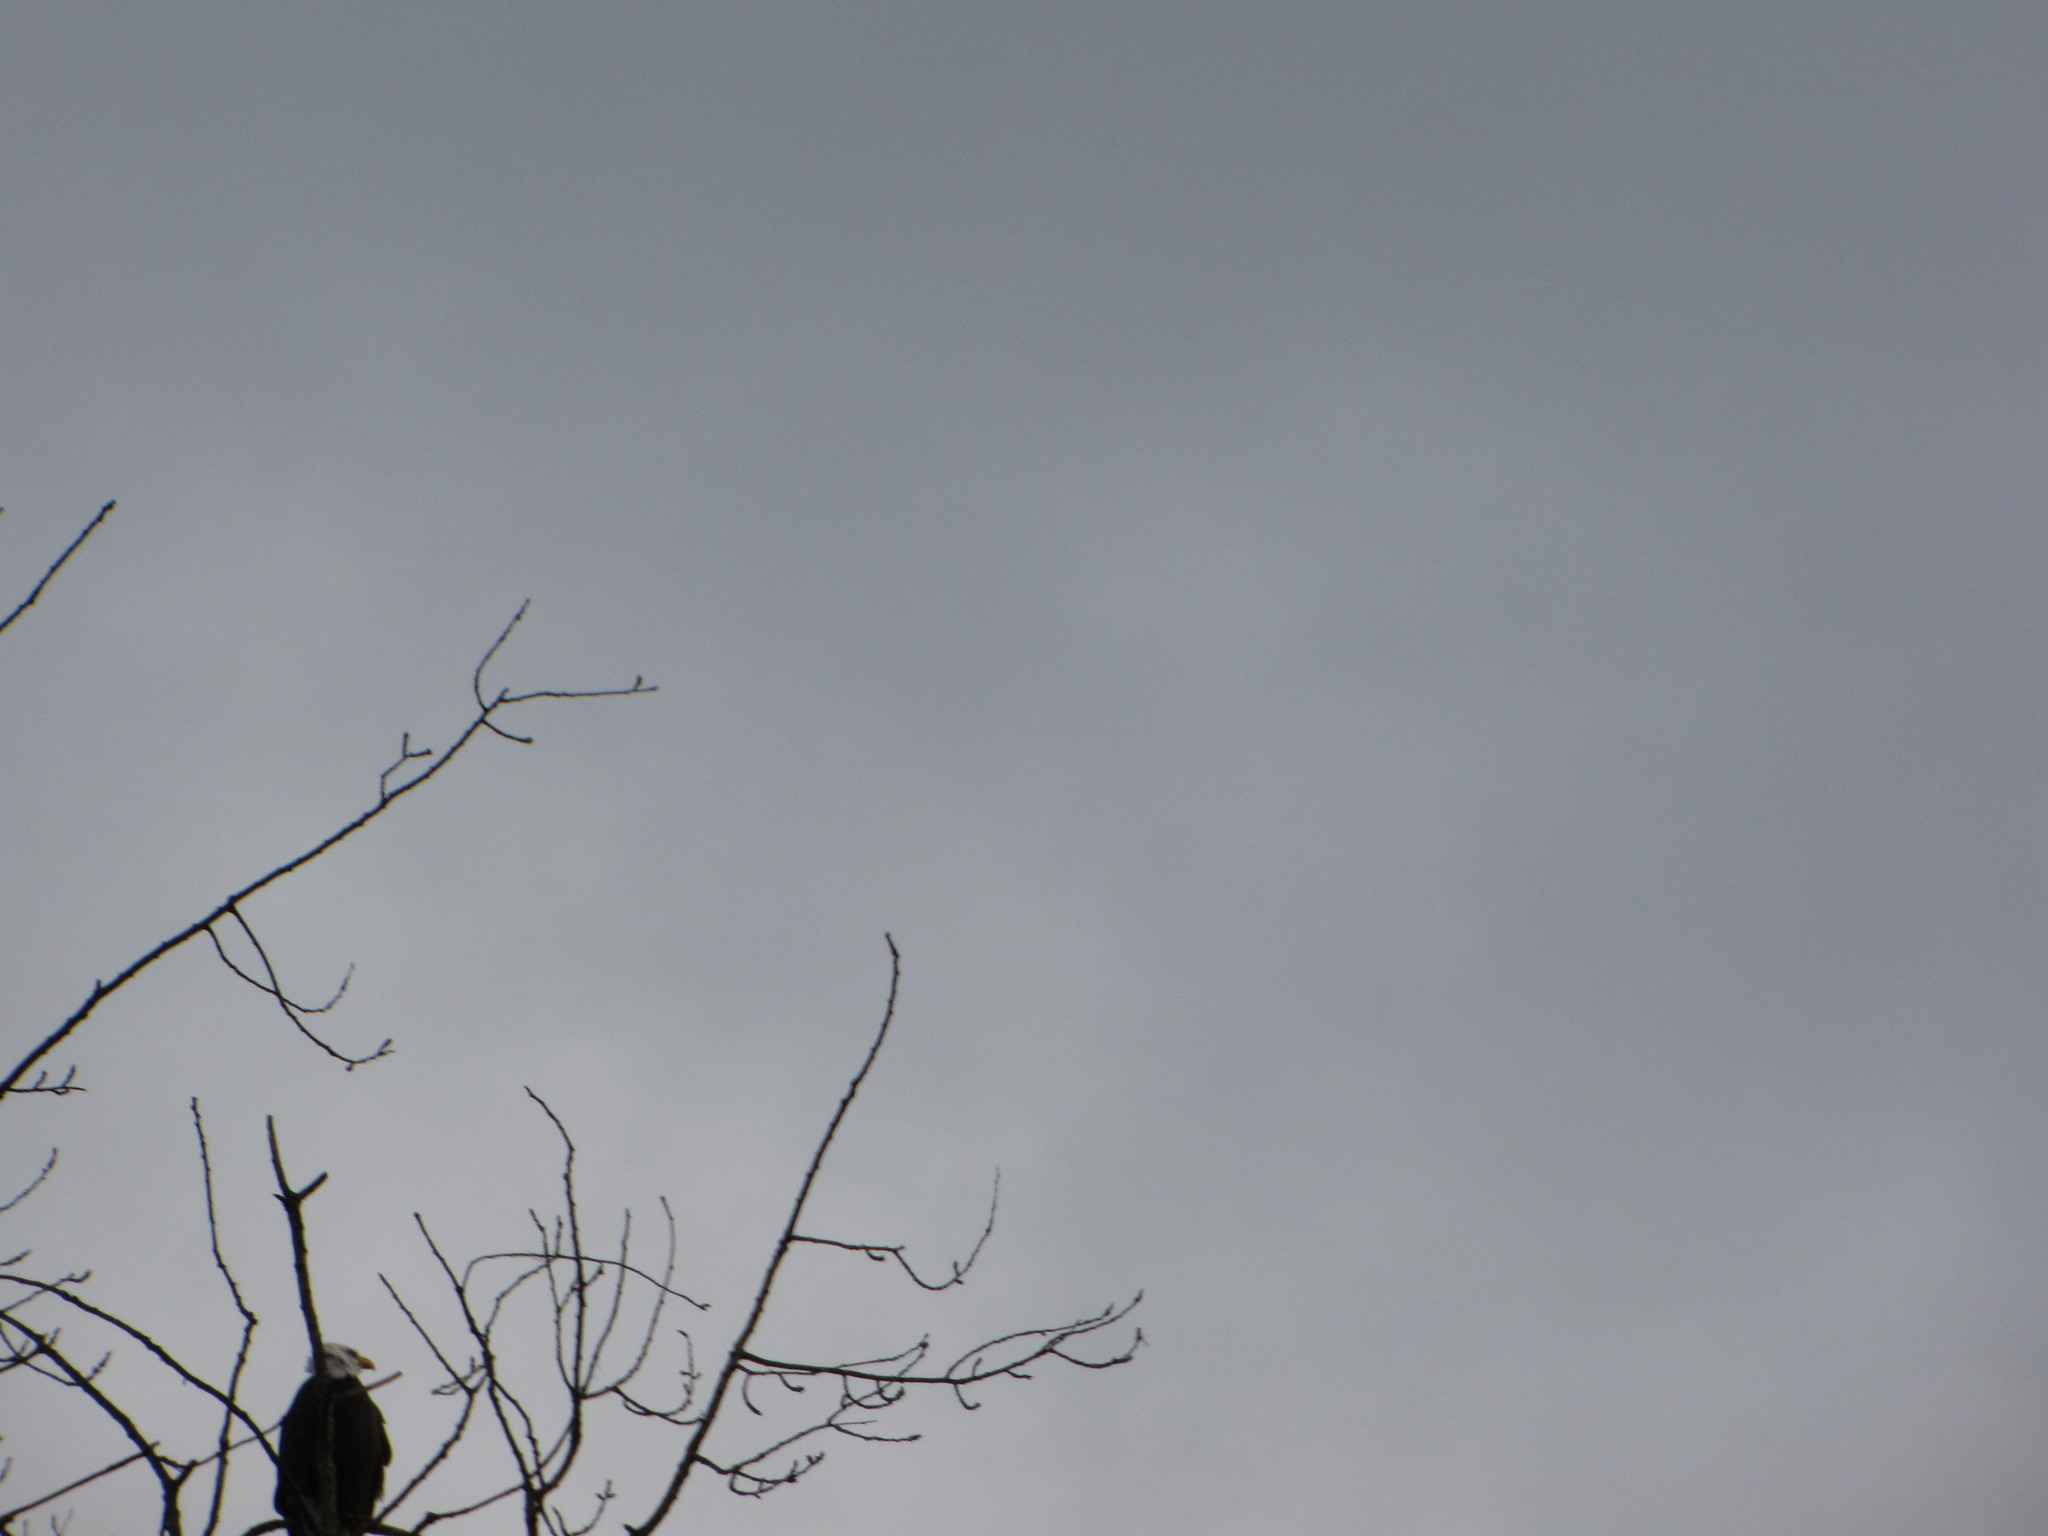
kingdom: Animalia
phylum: Chordata
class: Aves
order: Accipitriformes
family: Accipitridae
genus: Haliaeetus
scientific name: Haliaeetus leucocephalus
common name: Bald eagle
